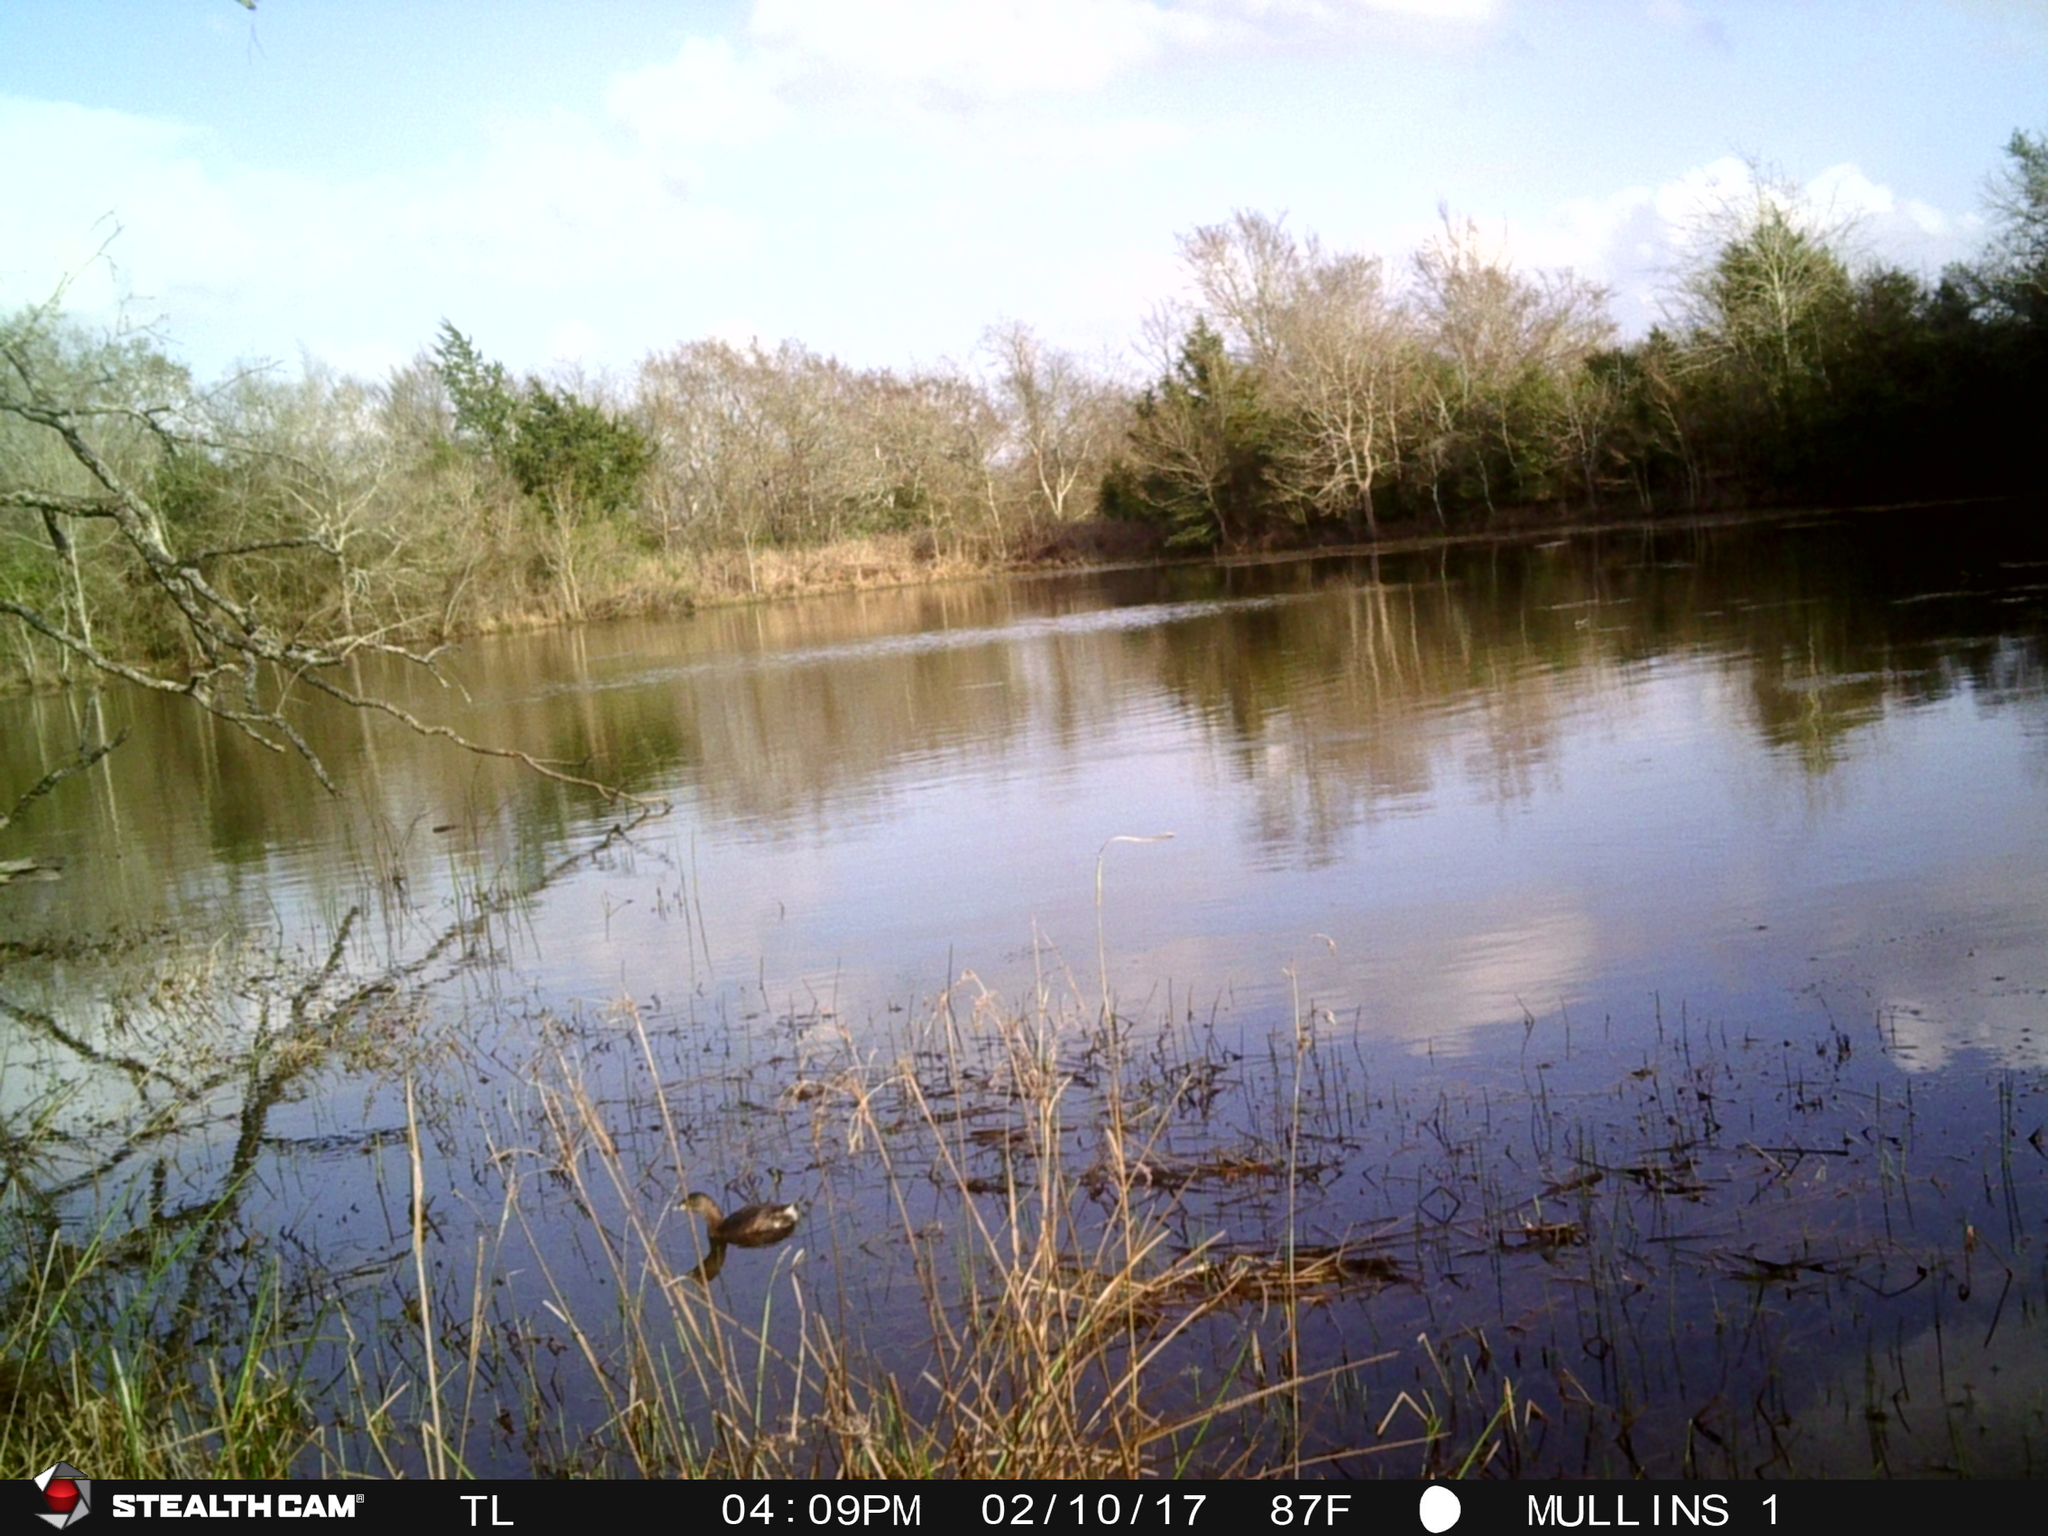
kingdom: Animalia
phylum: Chordata
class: Aves
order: Podicipediformes
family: Podicipedidae
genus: Podilymbus
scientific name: Podilymbus podiceps
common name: Pied-billed grebe
